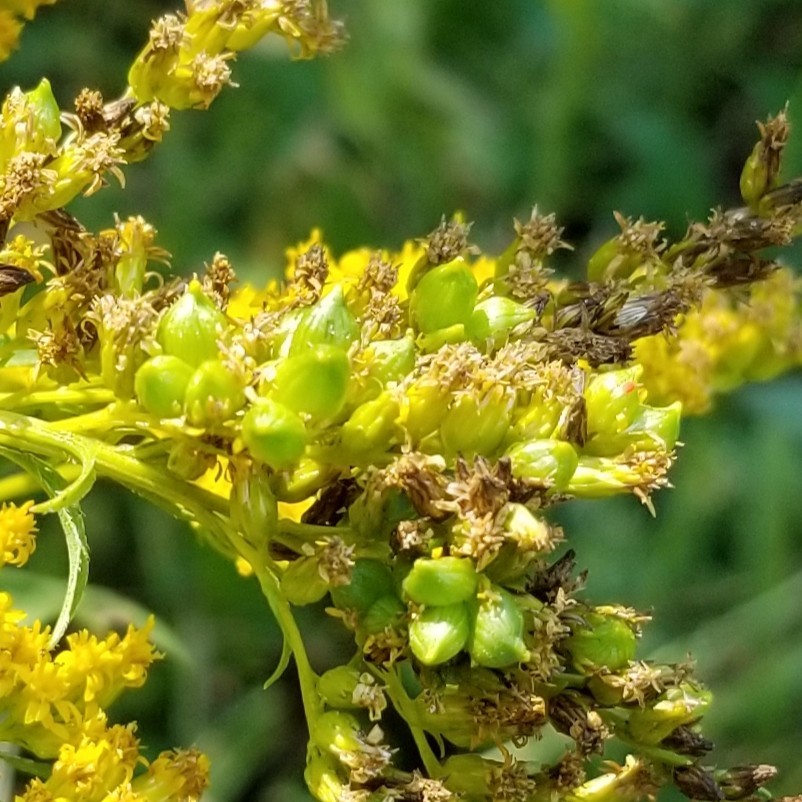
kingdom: Animalia
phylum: Arthropoda
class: Insecta
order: Diptera
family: Cecidomyiidae
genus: Schizomyia
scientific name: Schizomyia racemicola
